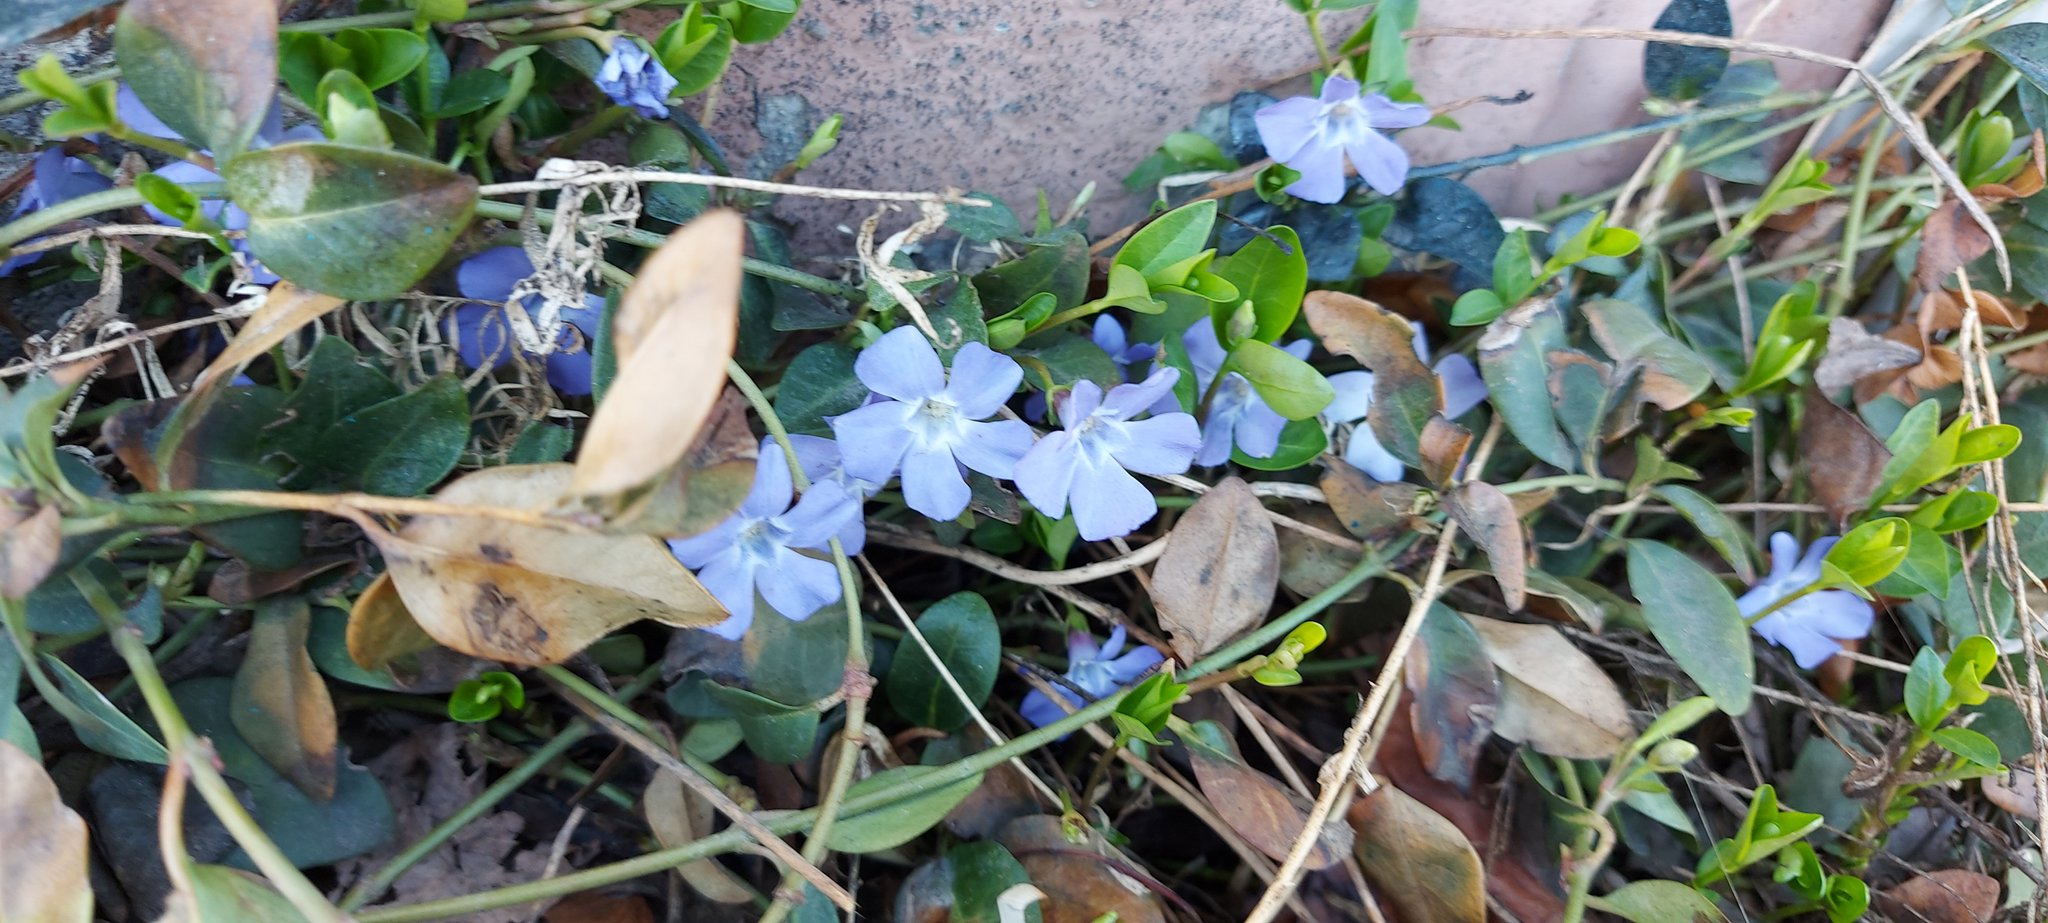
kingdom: Plantae
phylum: Tracheophyta
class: Magnoliopsida
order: Gentianales
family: Apocynaceae
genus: Vinca
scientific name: Vinca minor
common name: Lesser periwinkle
